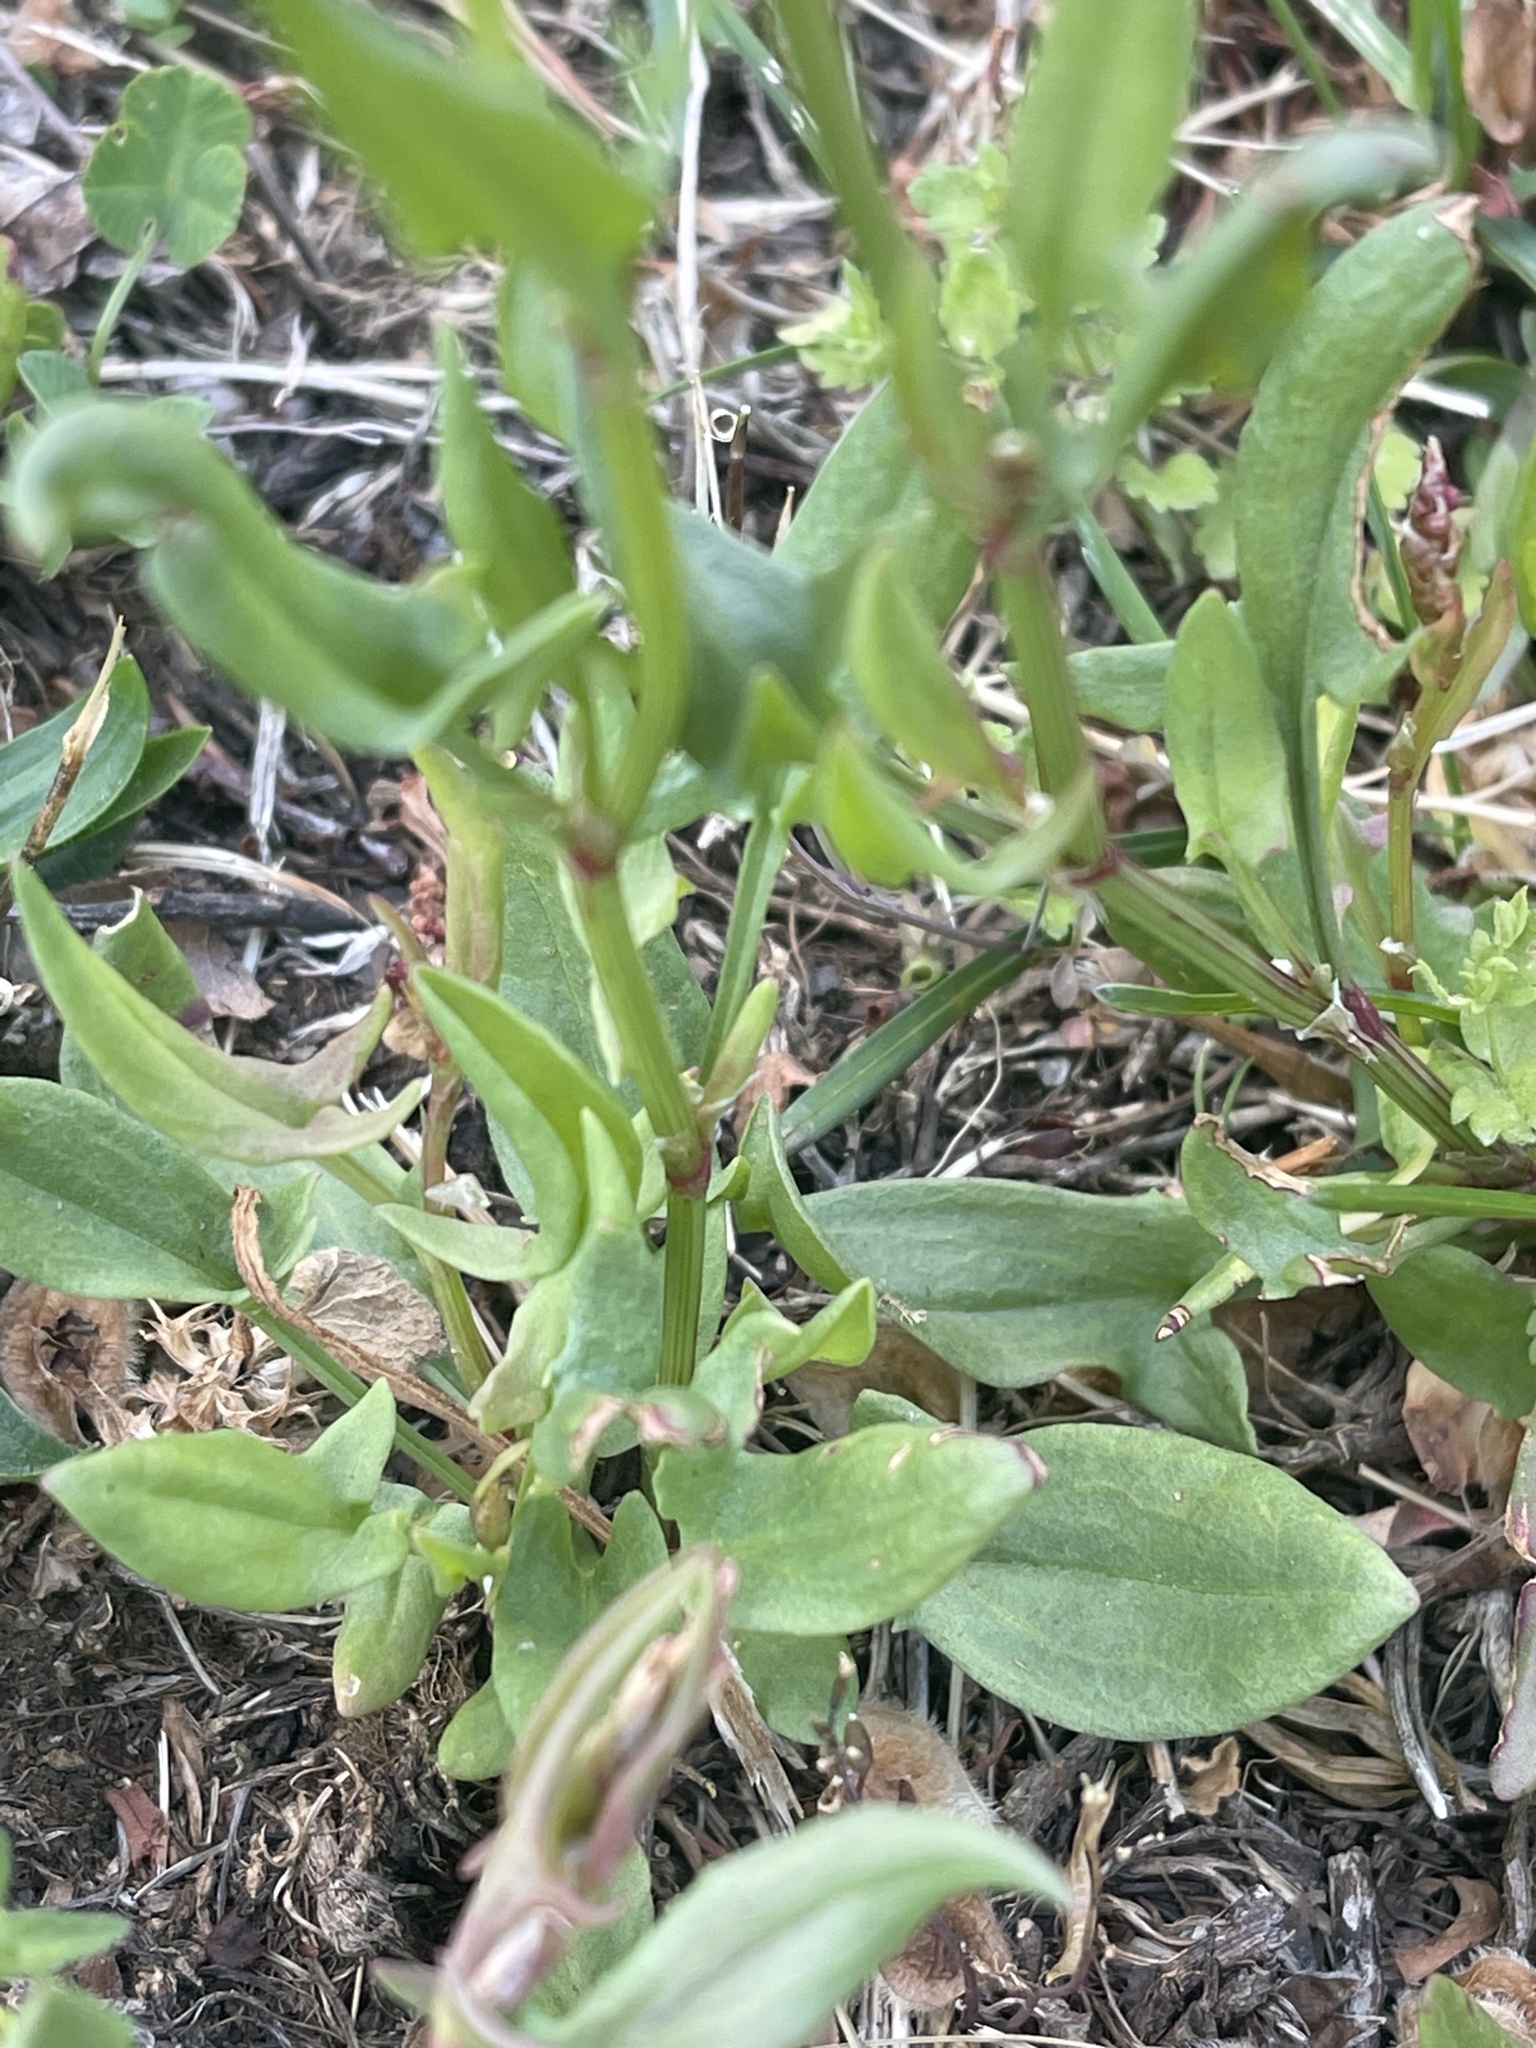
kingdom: Plantae
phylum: Tracheophyta
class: Magnoliopsida
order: Caryophyllales
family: Polygonaceae
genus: Rumex
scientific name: Rumex acetosella
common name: Common sheep sorrel
